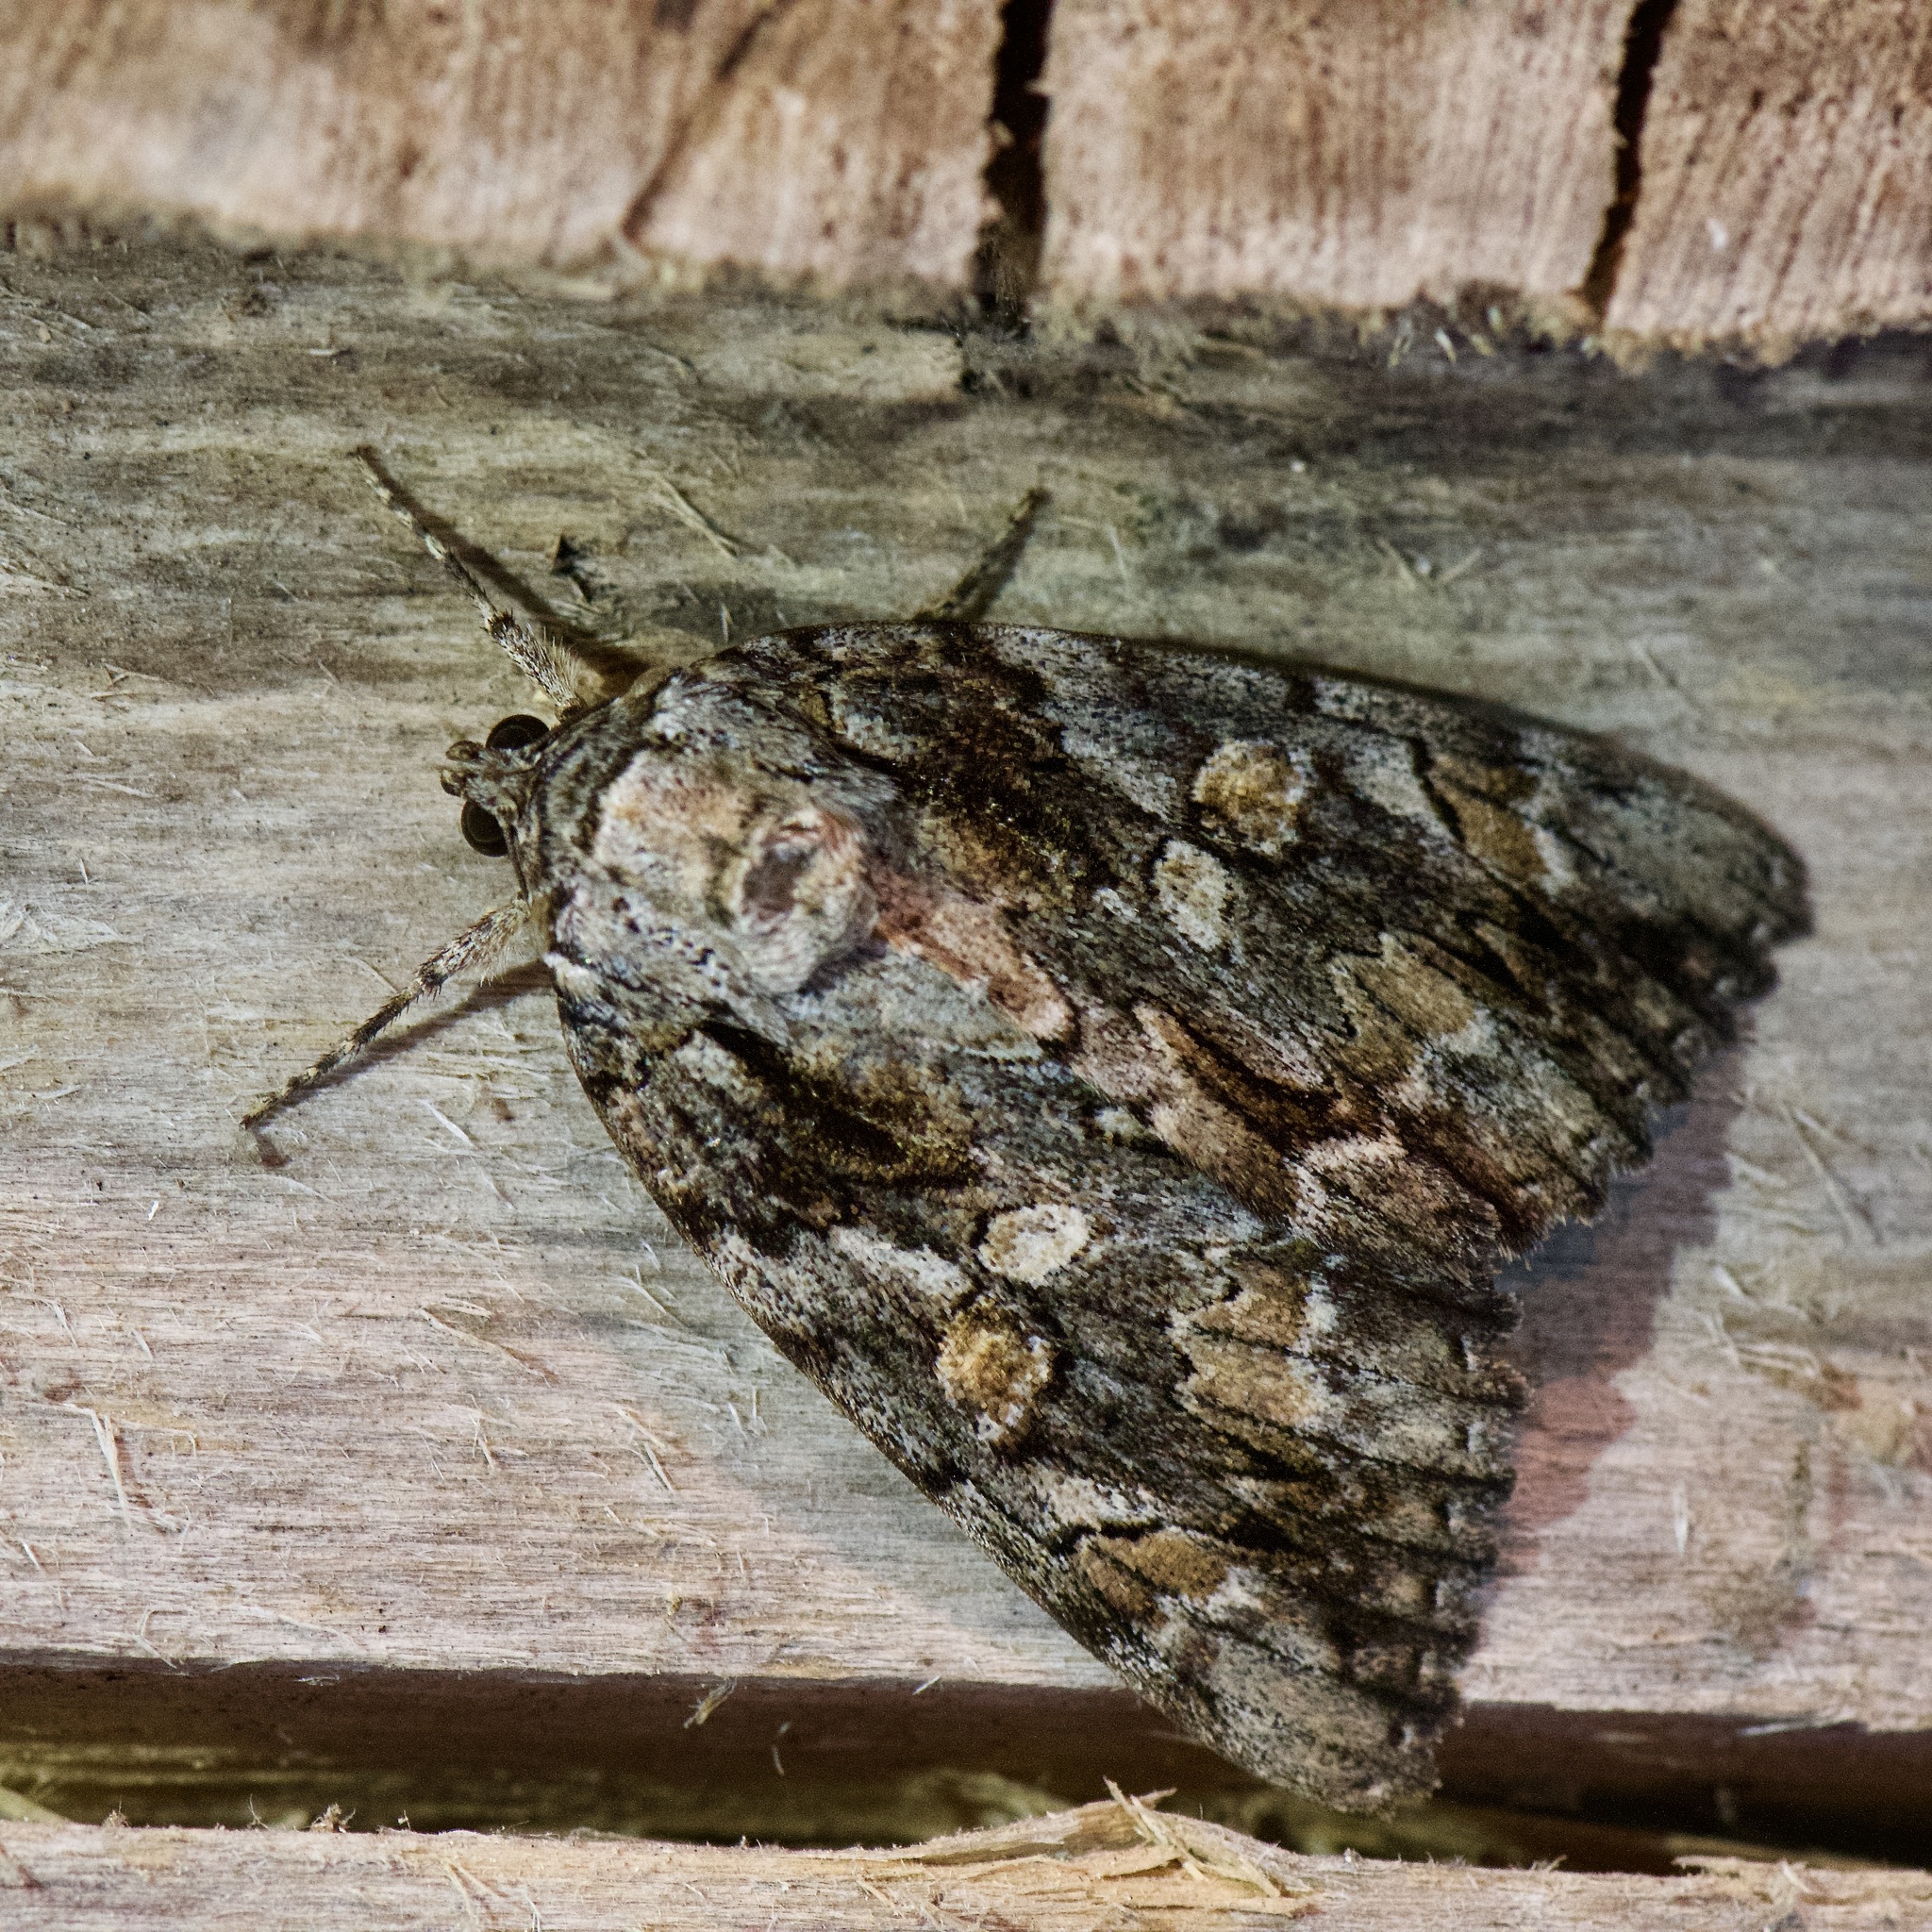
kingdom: Animalia
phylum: Arthropoda
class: Insecta
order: Lepidoptera
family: Erebidae
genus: Catocala
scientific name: Catocala neogama
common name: Bride underwing
